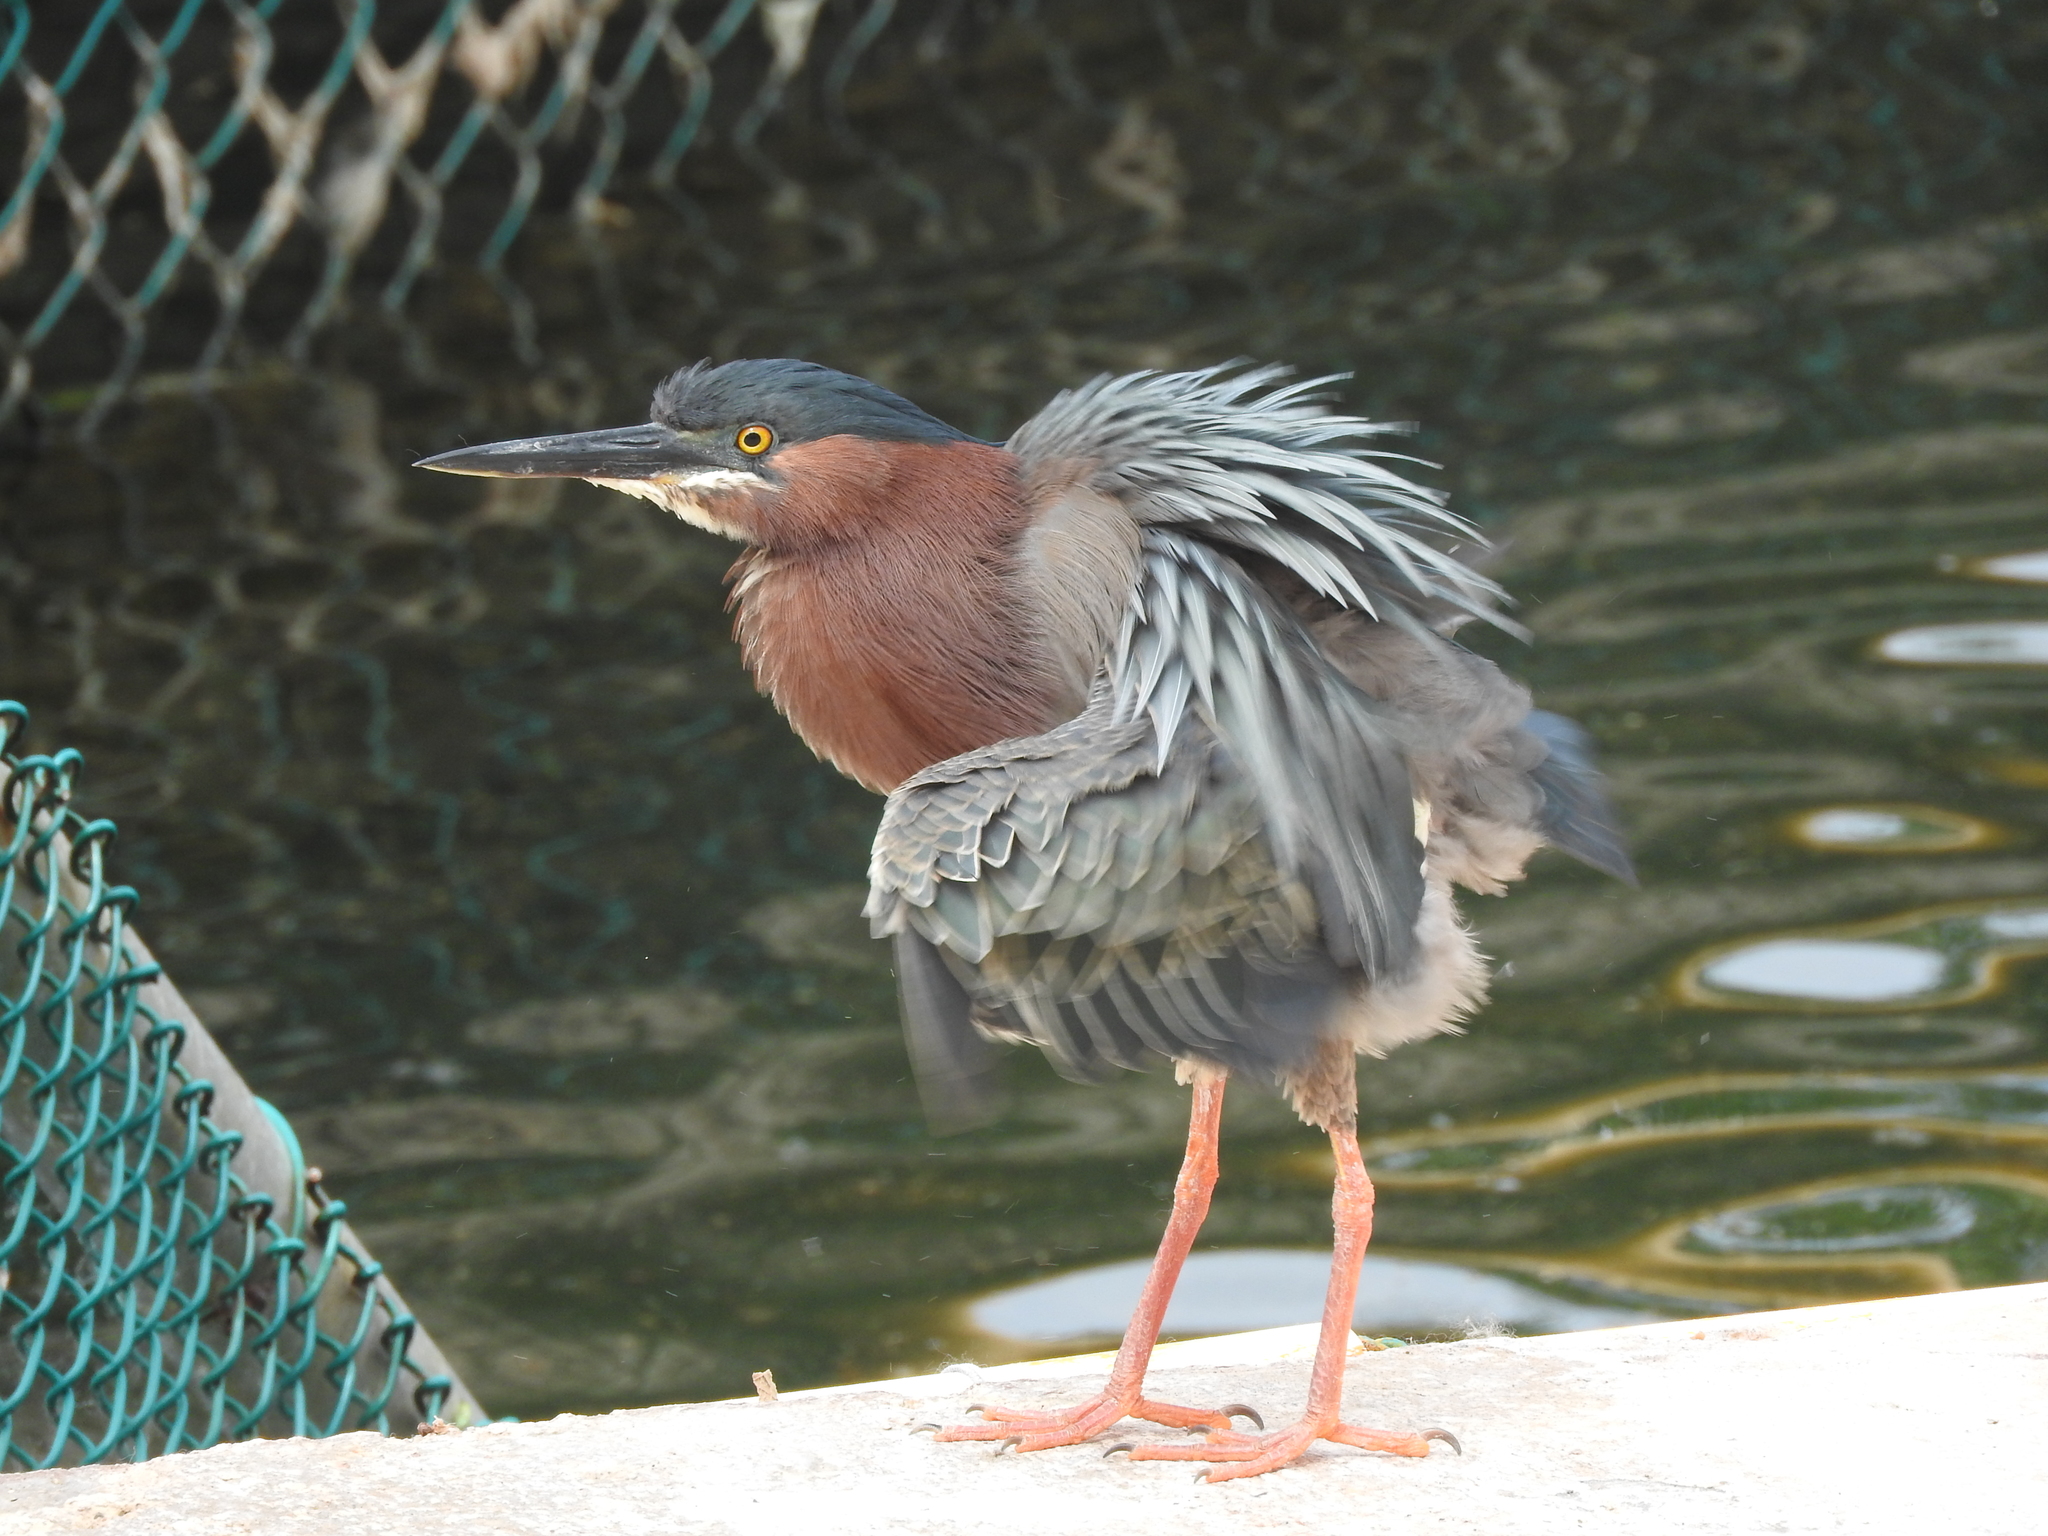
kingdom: Animalia
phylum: Chordata
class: Aves
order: Pelecaniformes
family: Ardeidae
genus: Butorides
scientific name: Butorides virescens
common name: Green heron
